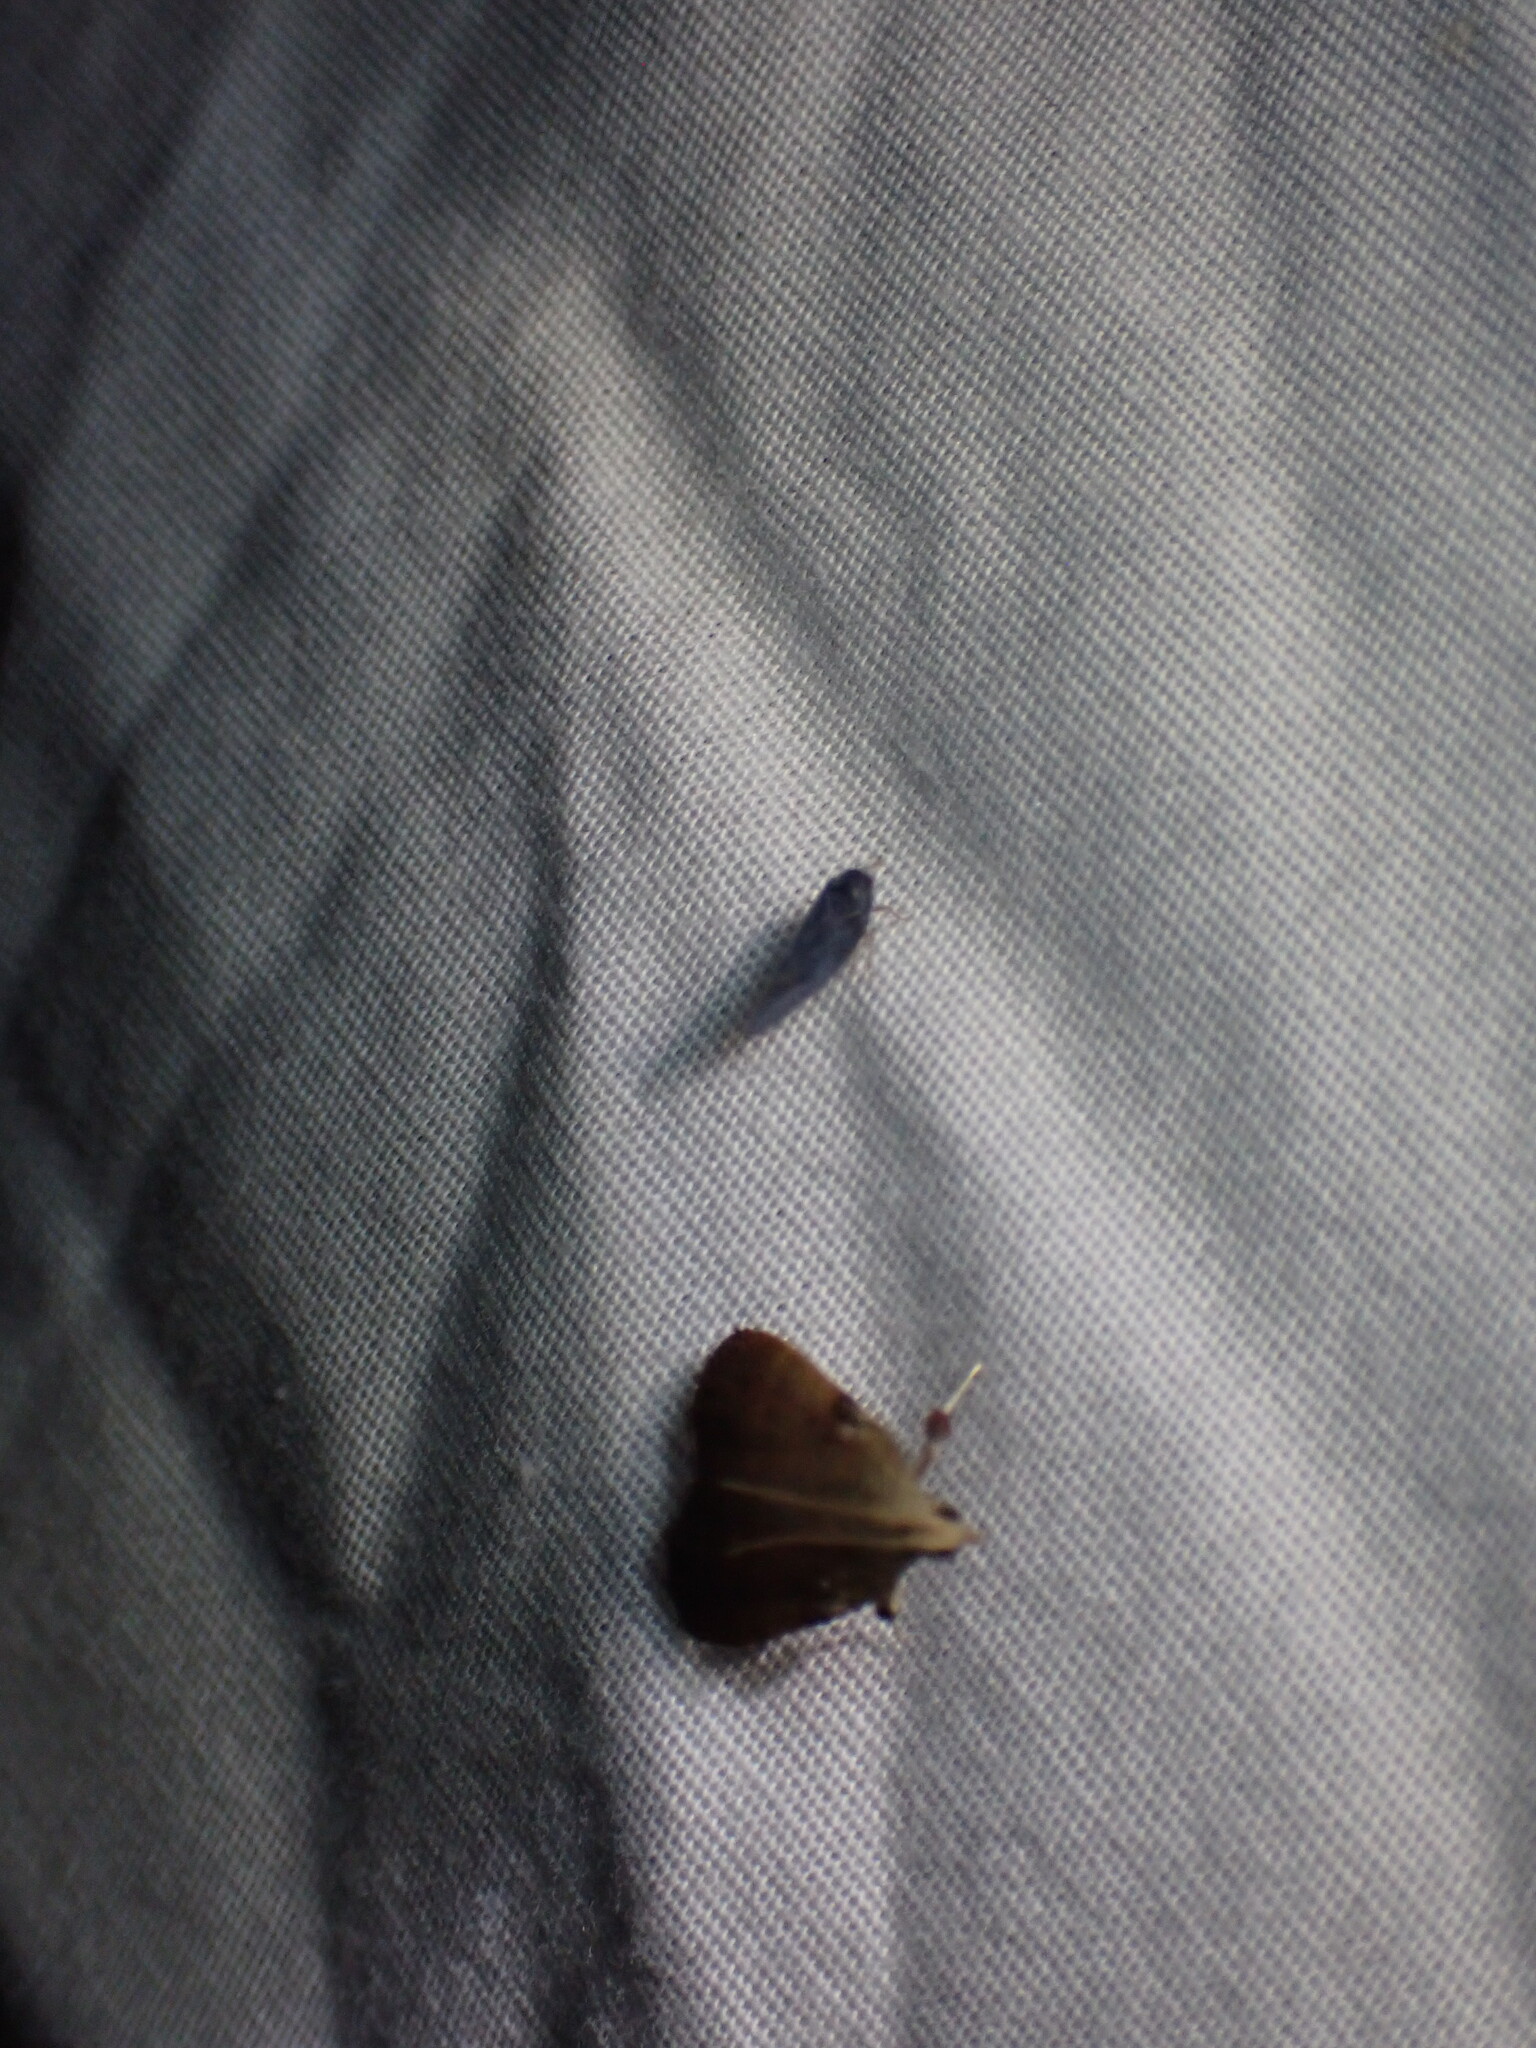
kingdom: Animalia
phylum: Arthropoda
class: Insecta
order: Lepidoptera
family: Pyralidae
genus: Condylolomia
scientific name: Condylolomia participialis
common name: Drab condylolomia moth
